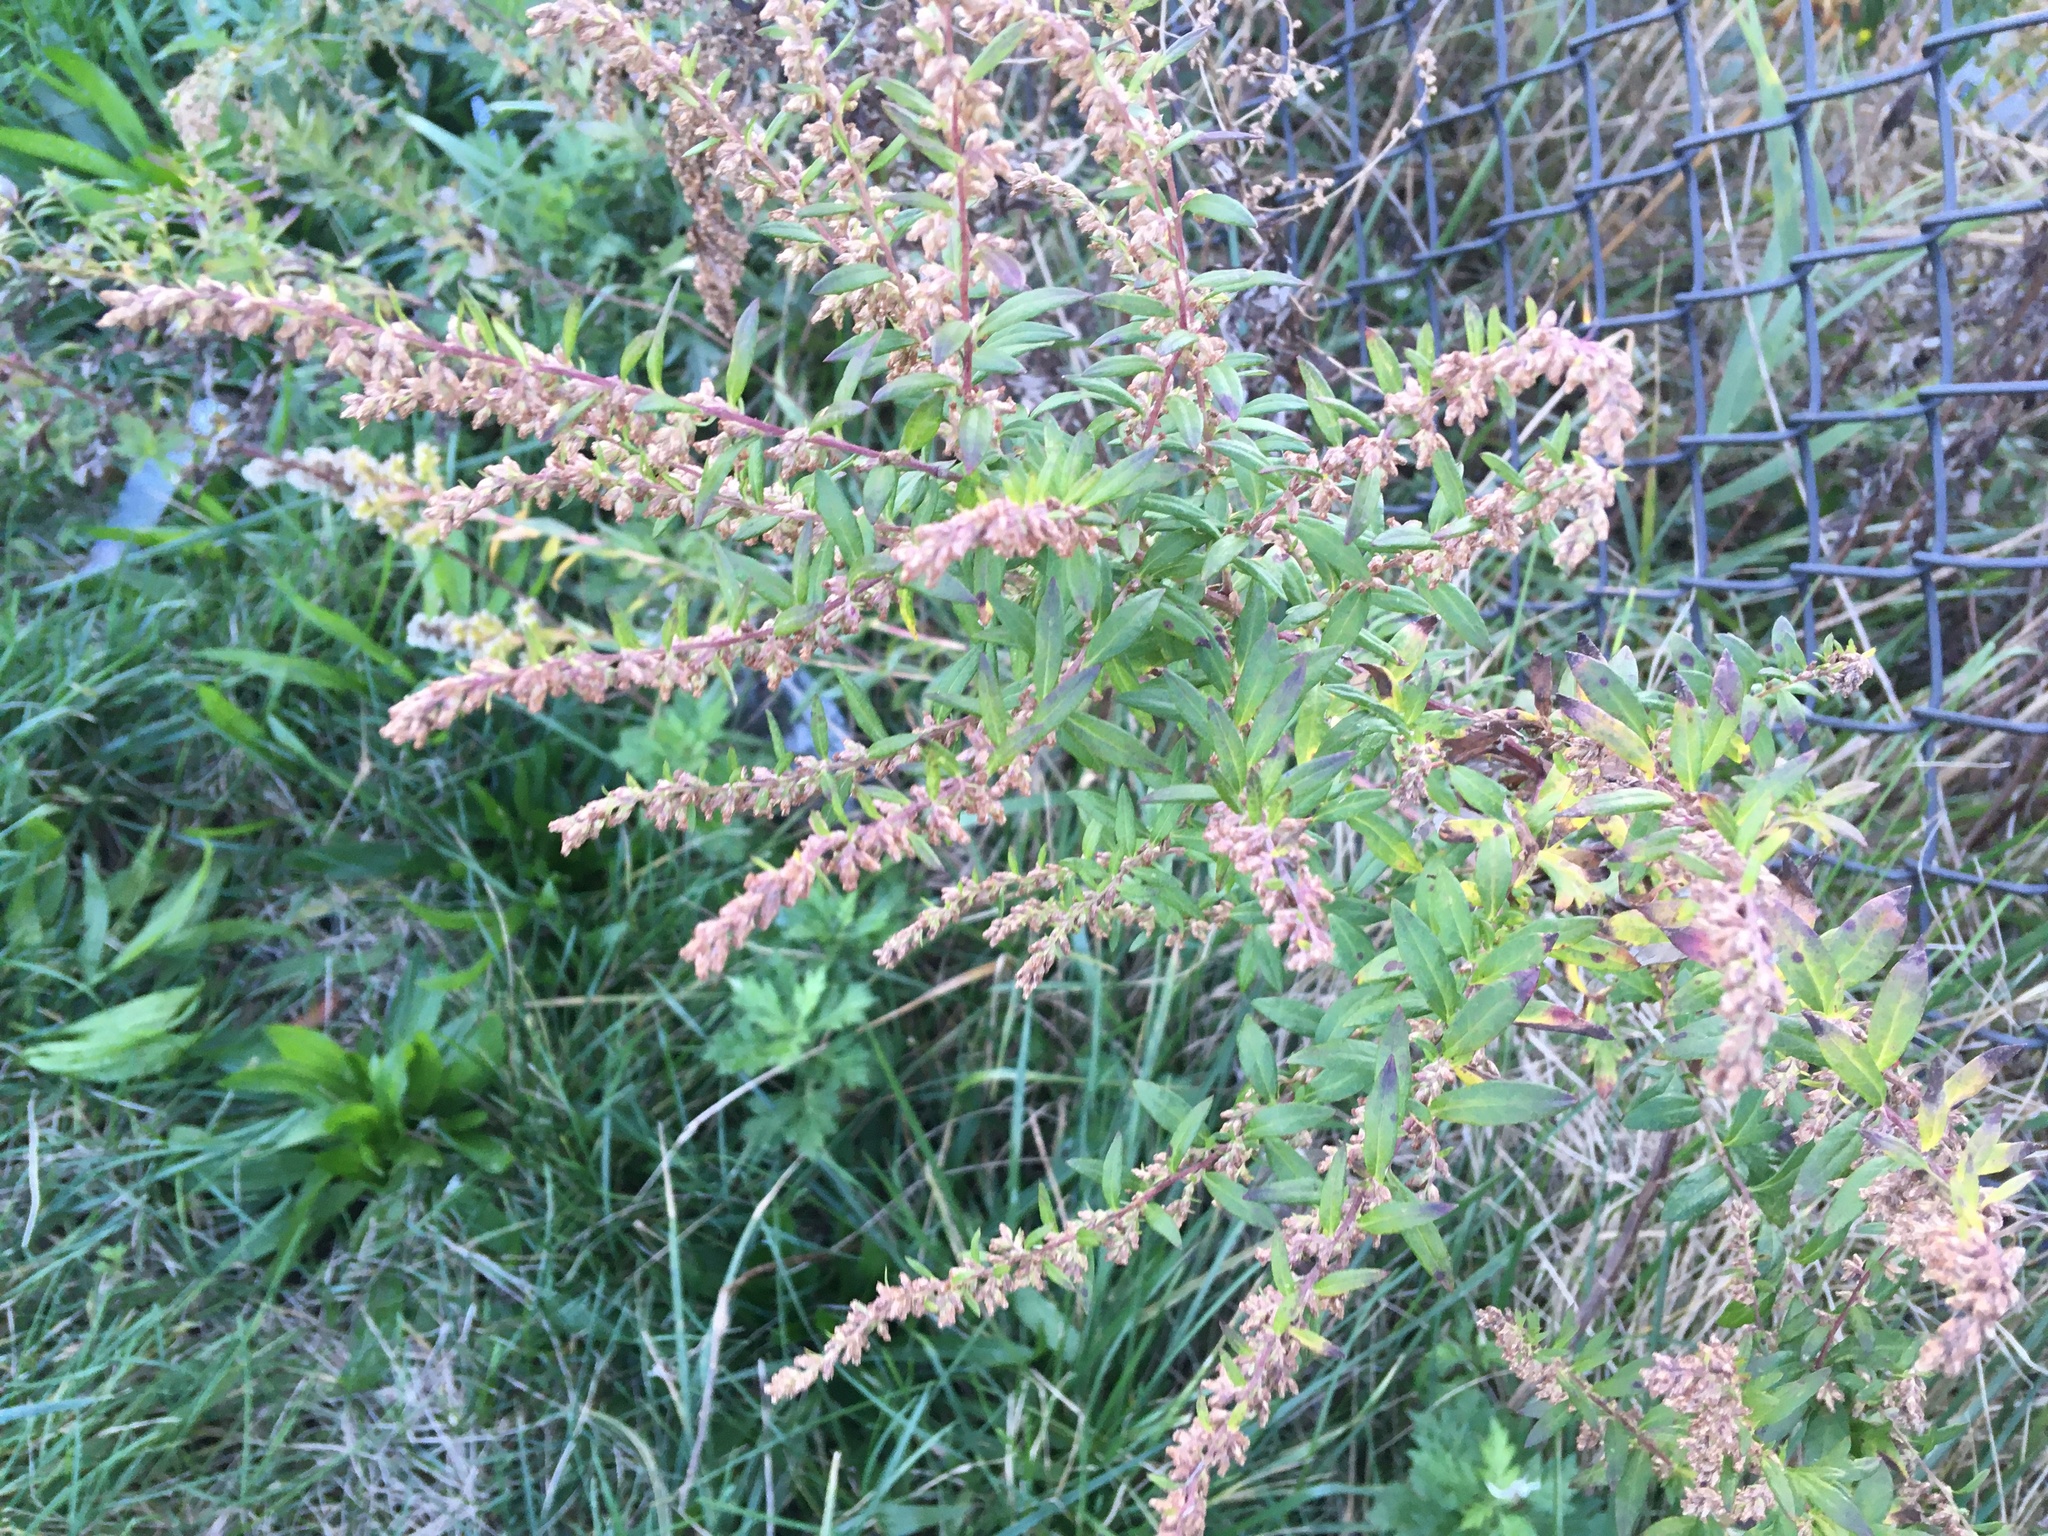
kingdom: Plantae
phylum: Tracheophyta
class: Magnoliopsida
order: Asterales
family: Asteraceae
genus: Artemisia
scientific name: Artemisia vulgaris
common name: Mugwort
